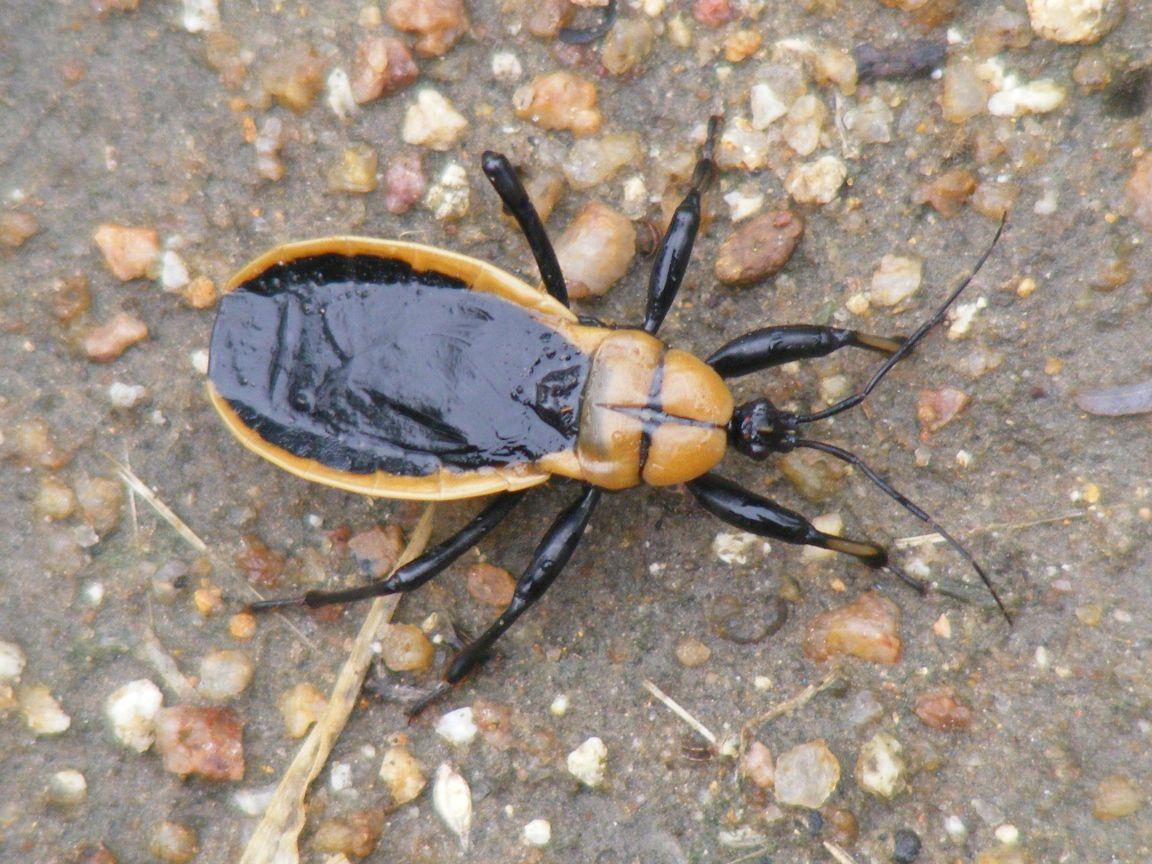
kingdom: Animalia
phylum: Arthropoda
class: Insecta
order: Hemiptera
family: Reduviidae
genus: Ectrichodia
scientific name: Ectrichodia crux
